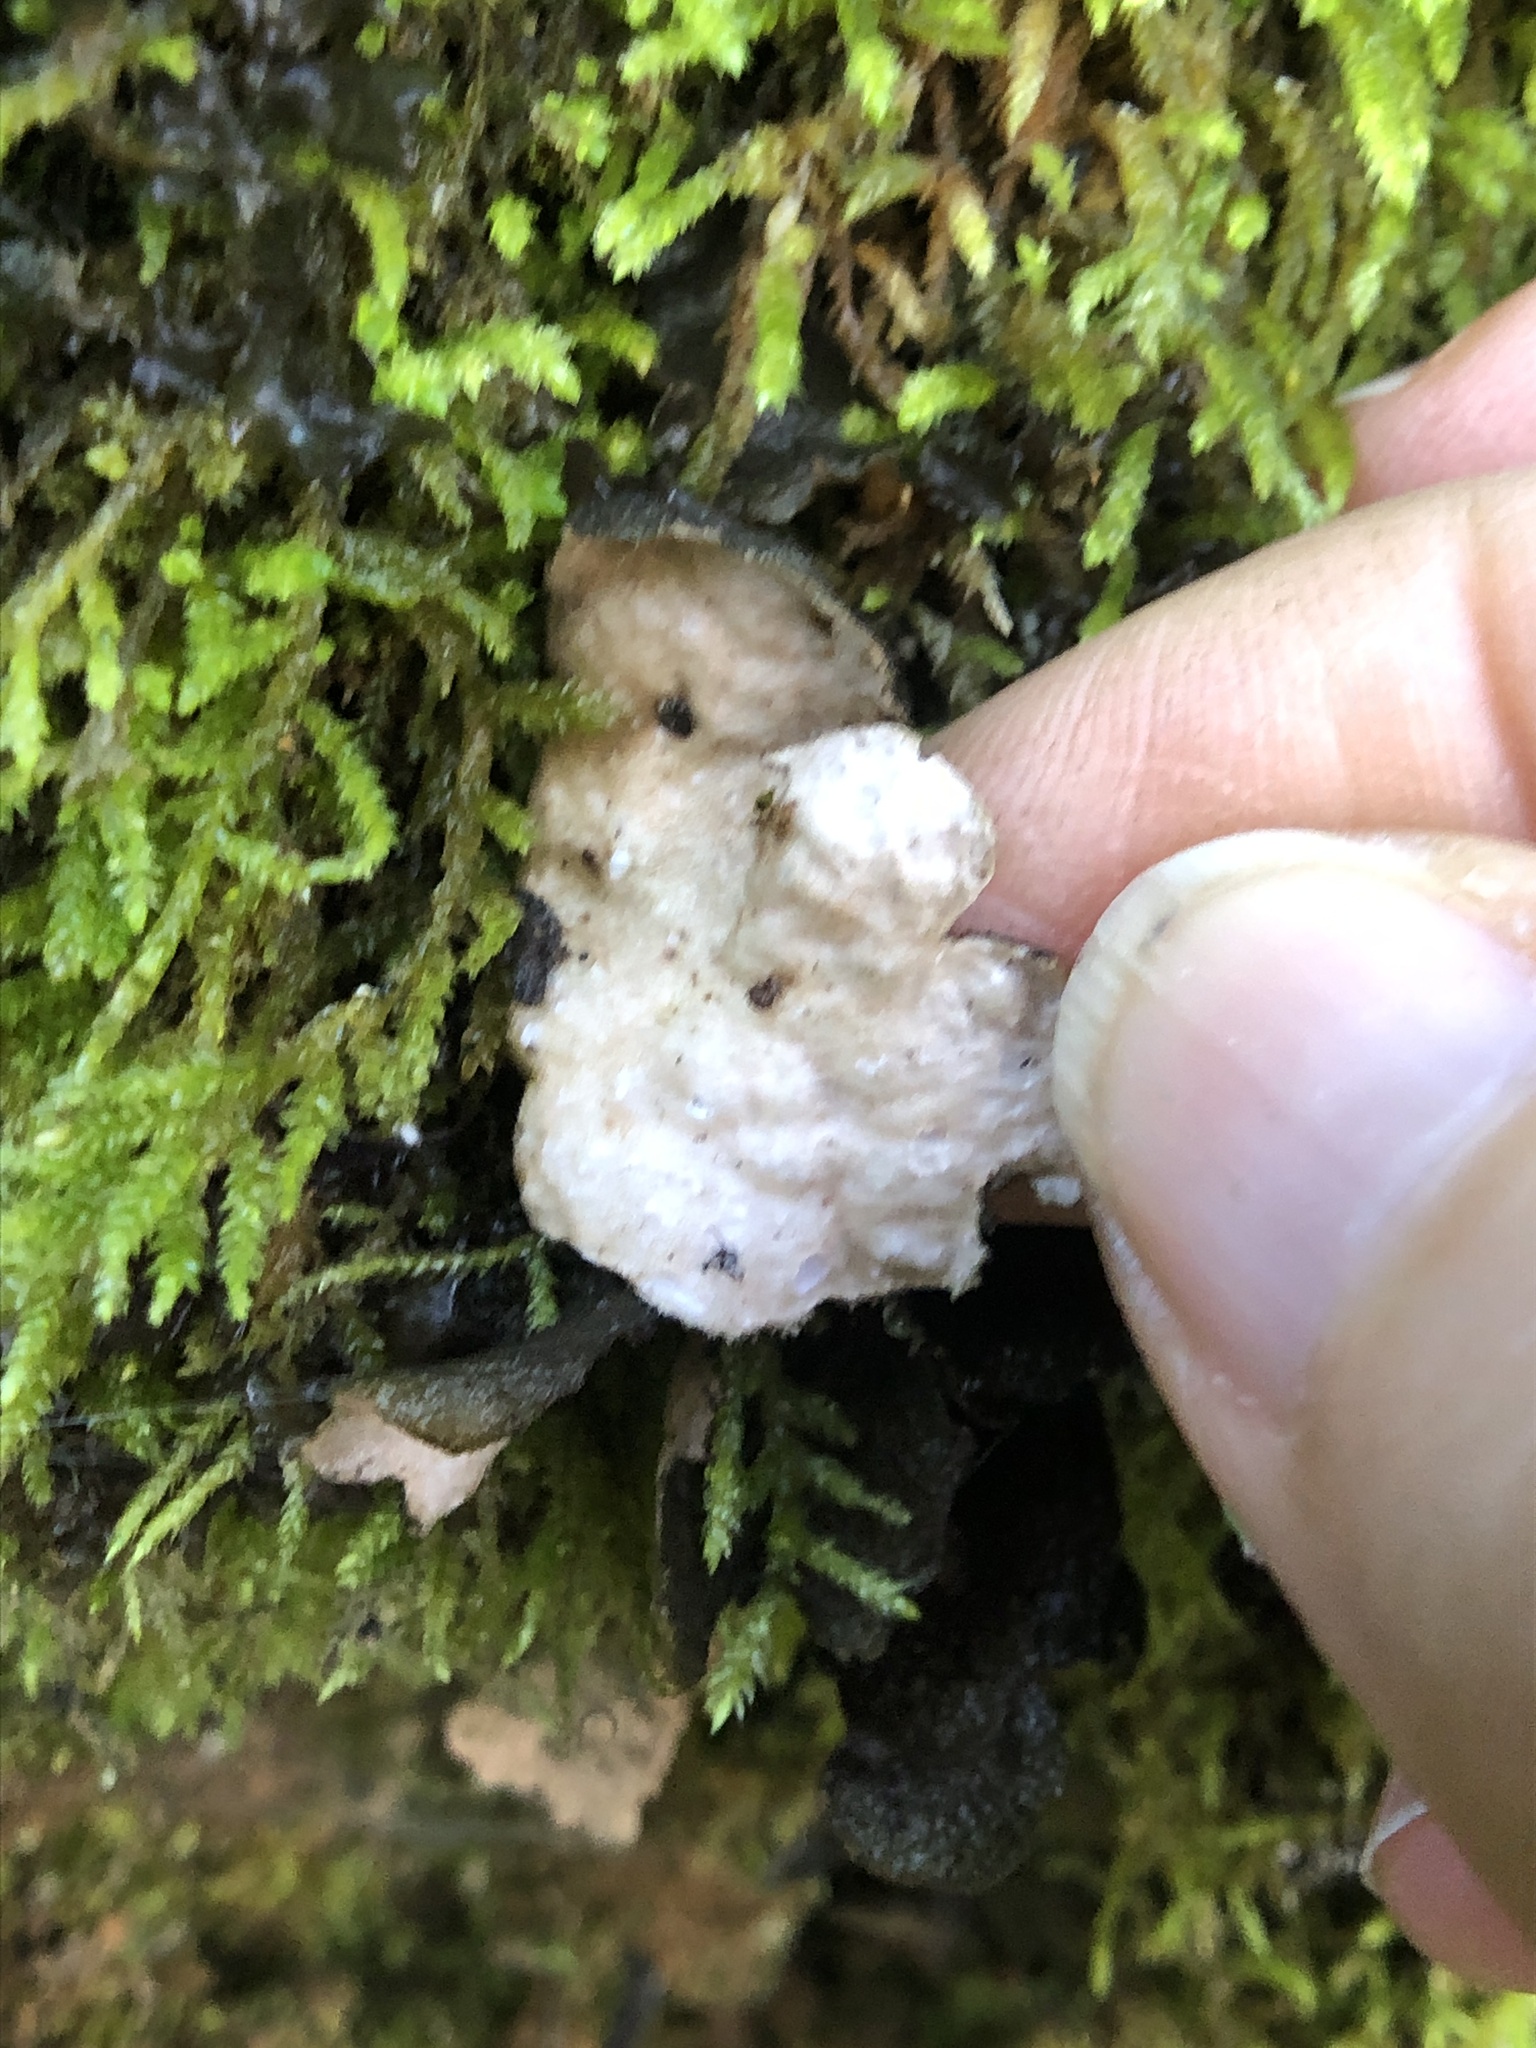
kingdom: Fungi
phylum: Ascomycota
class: Lecanoromycetes
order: Peltigerales
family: Lobariaceae
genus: Sticta
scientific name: Sticta
